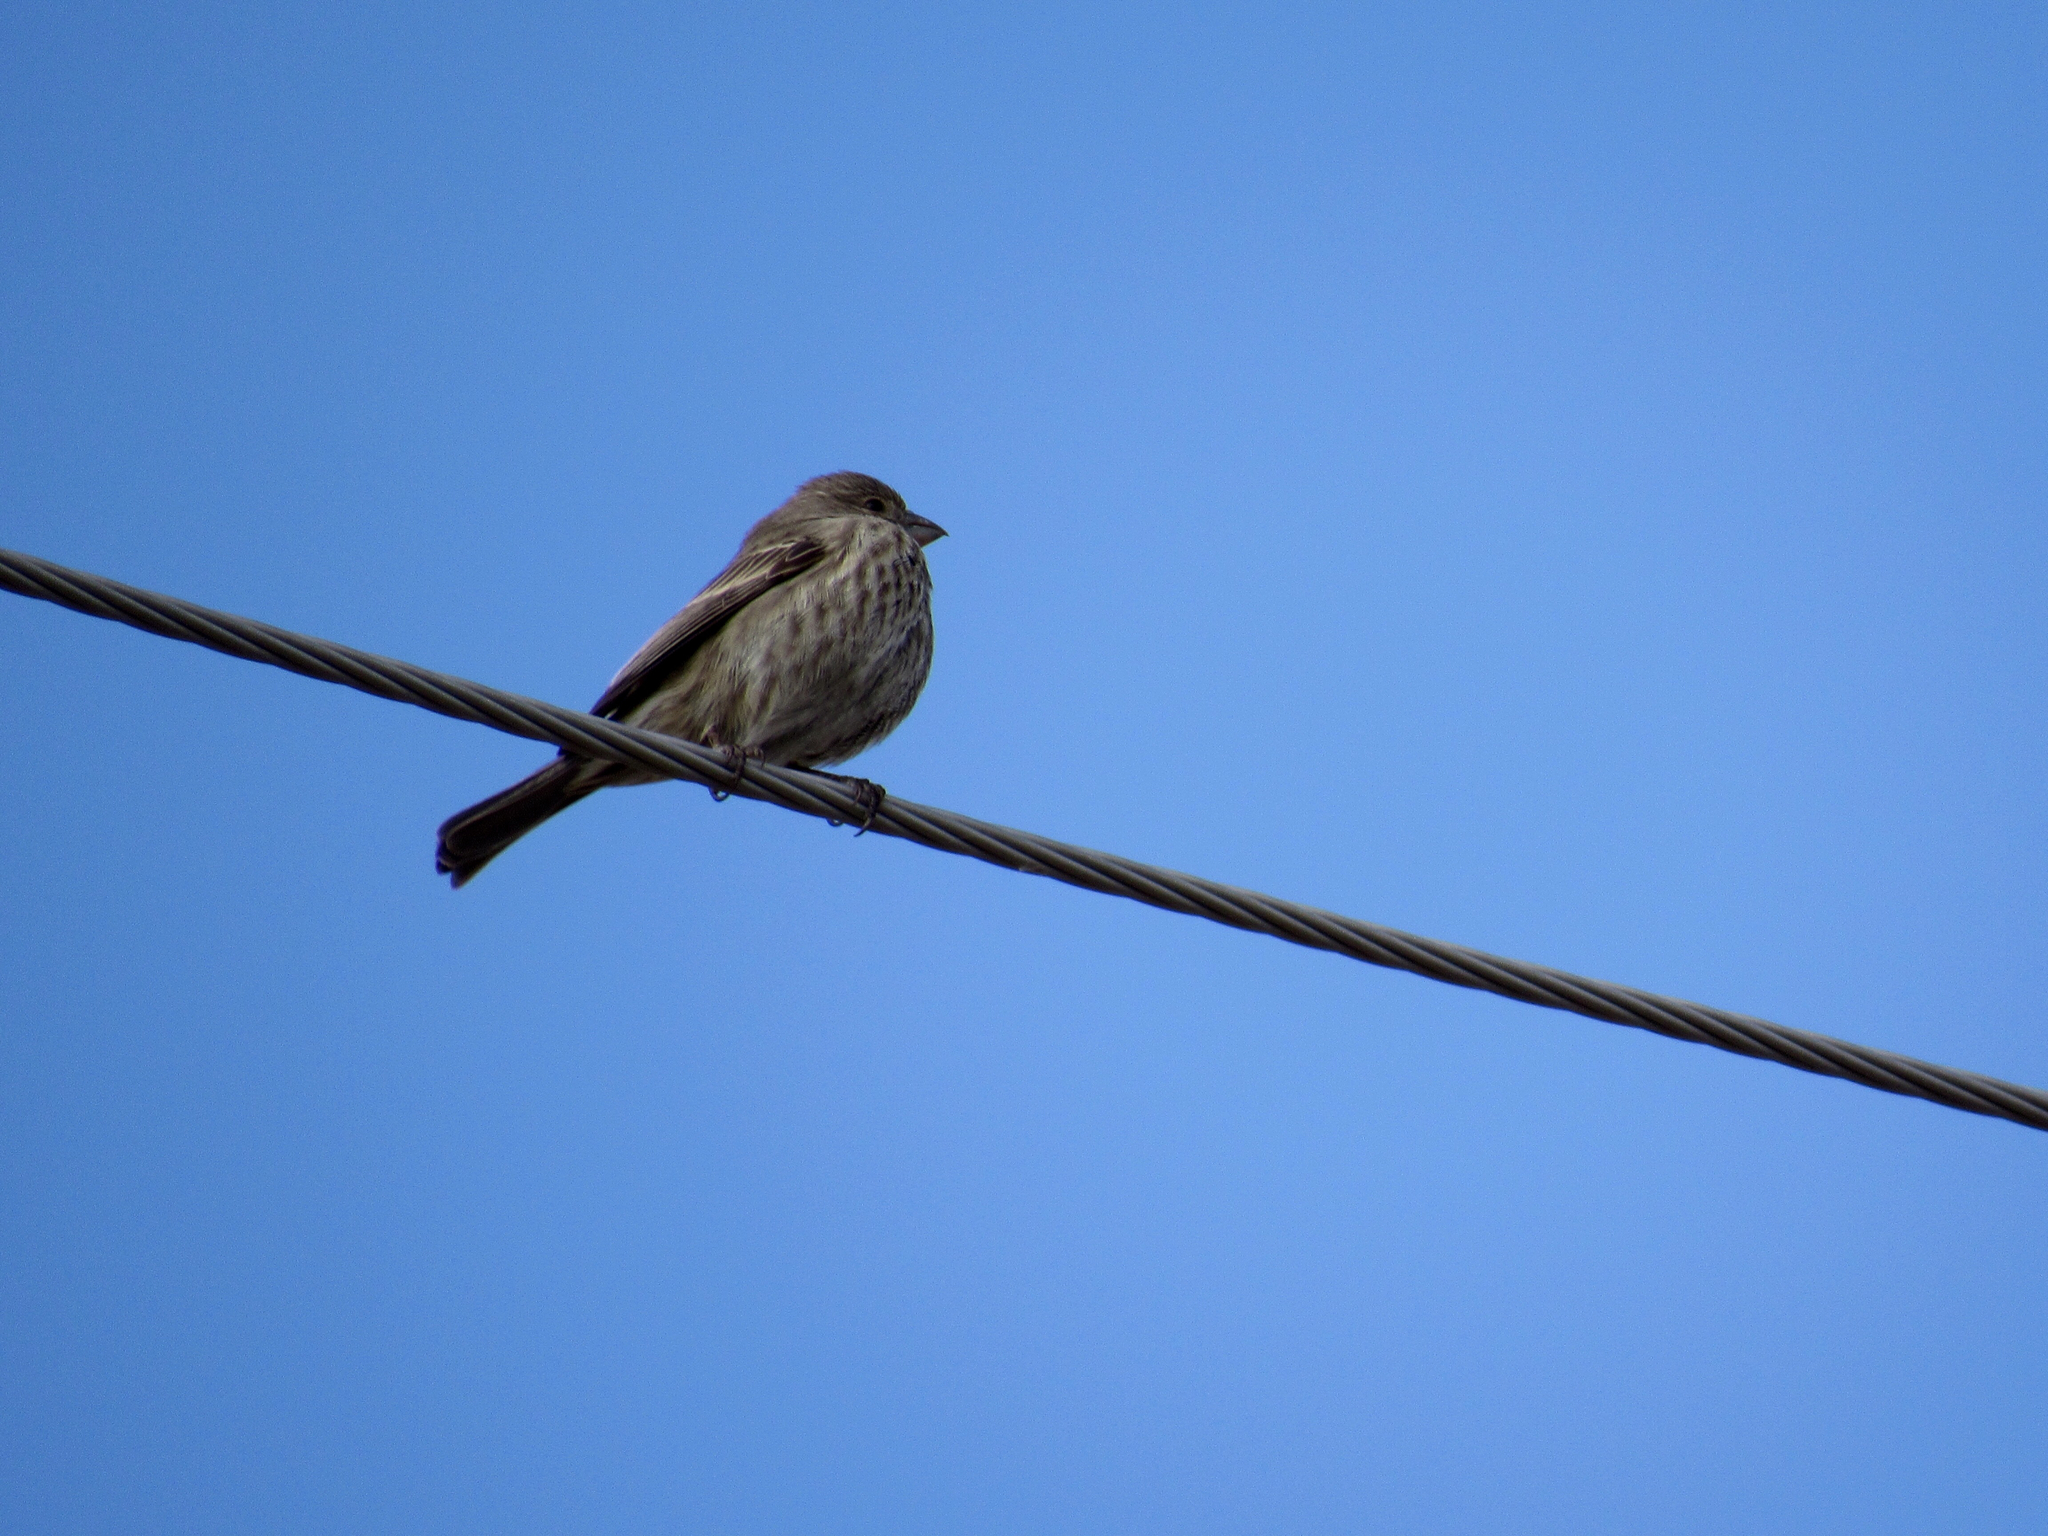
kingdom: Animalia
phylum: Chordata
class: Aves
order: Passeriformes
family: Fringillidae
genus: Haemorhous
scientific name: Haemorhous mexicanus
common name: House finch
